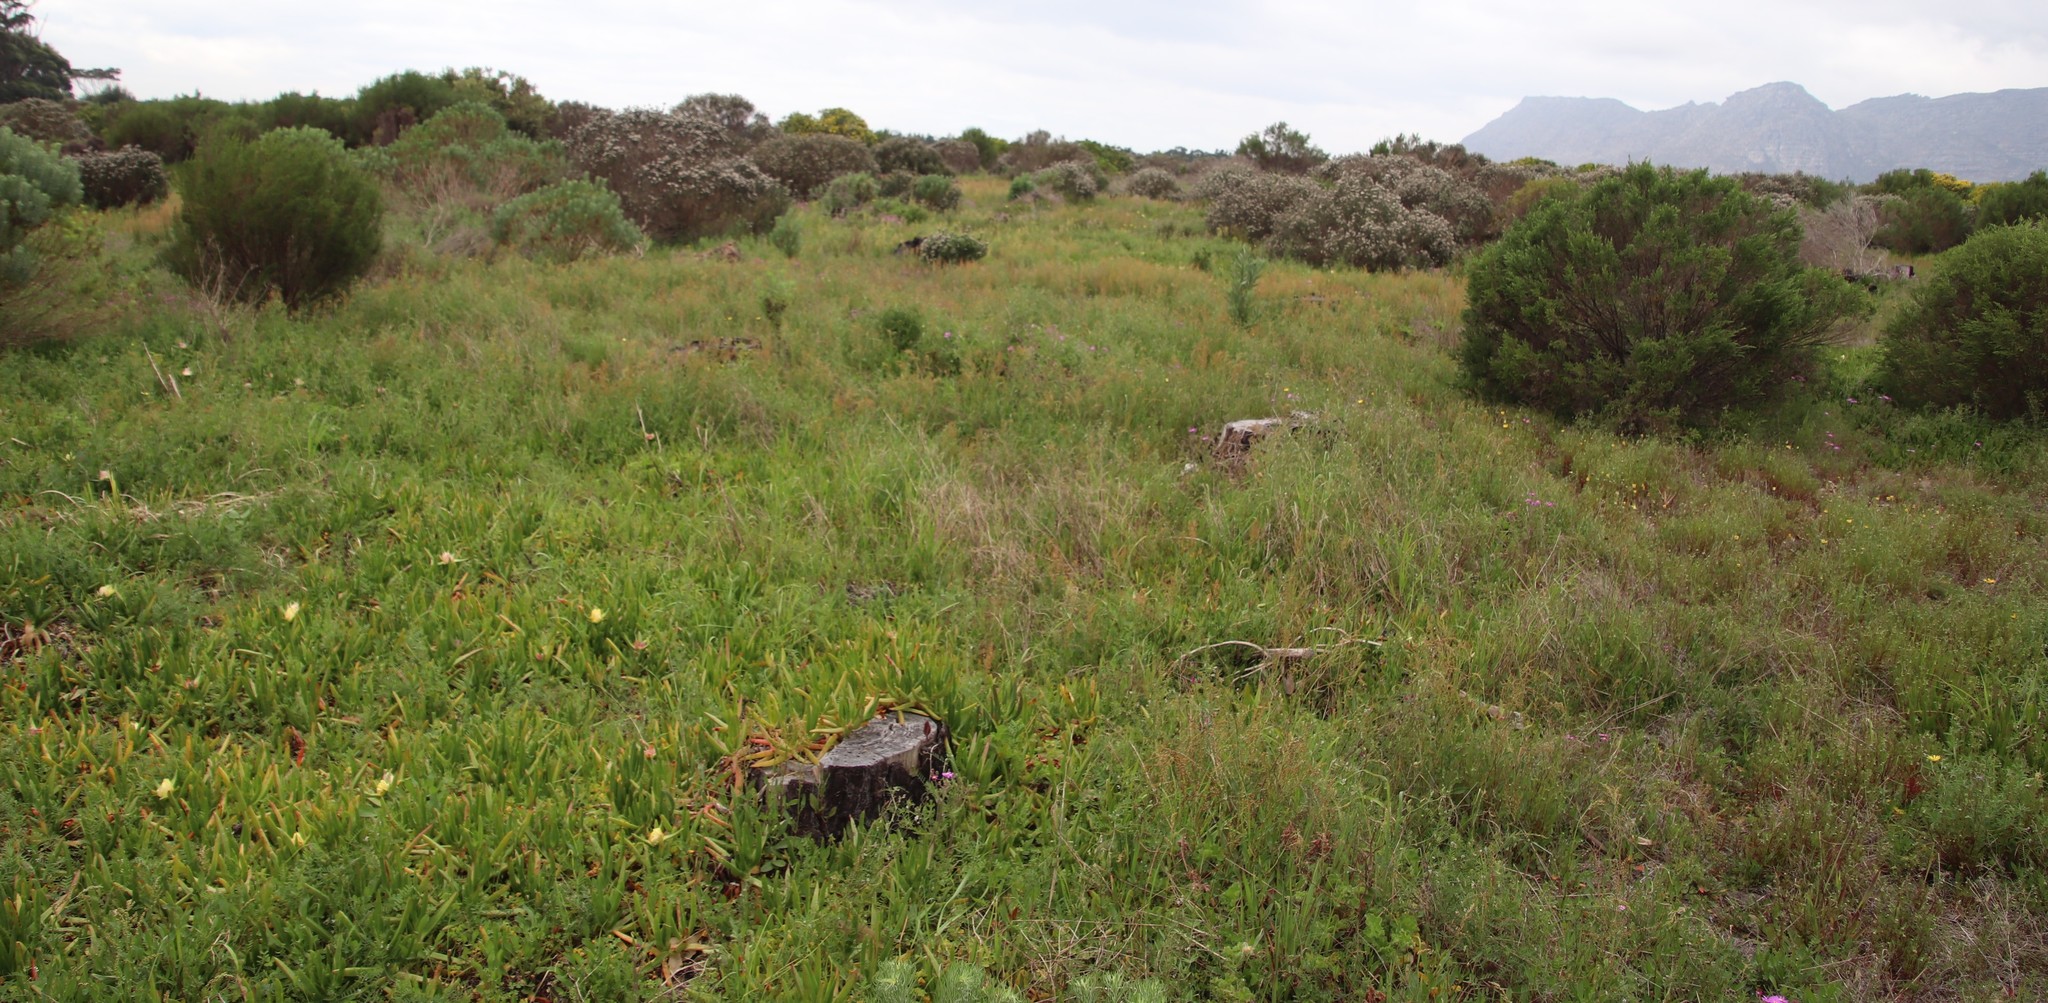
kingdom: Plantae
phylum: Tracheophyta
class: Magnoliopsida
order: Fabales
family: Fabaceae
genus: Vicia
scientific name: Vicia hirsuta
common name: Tiny vetch
